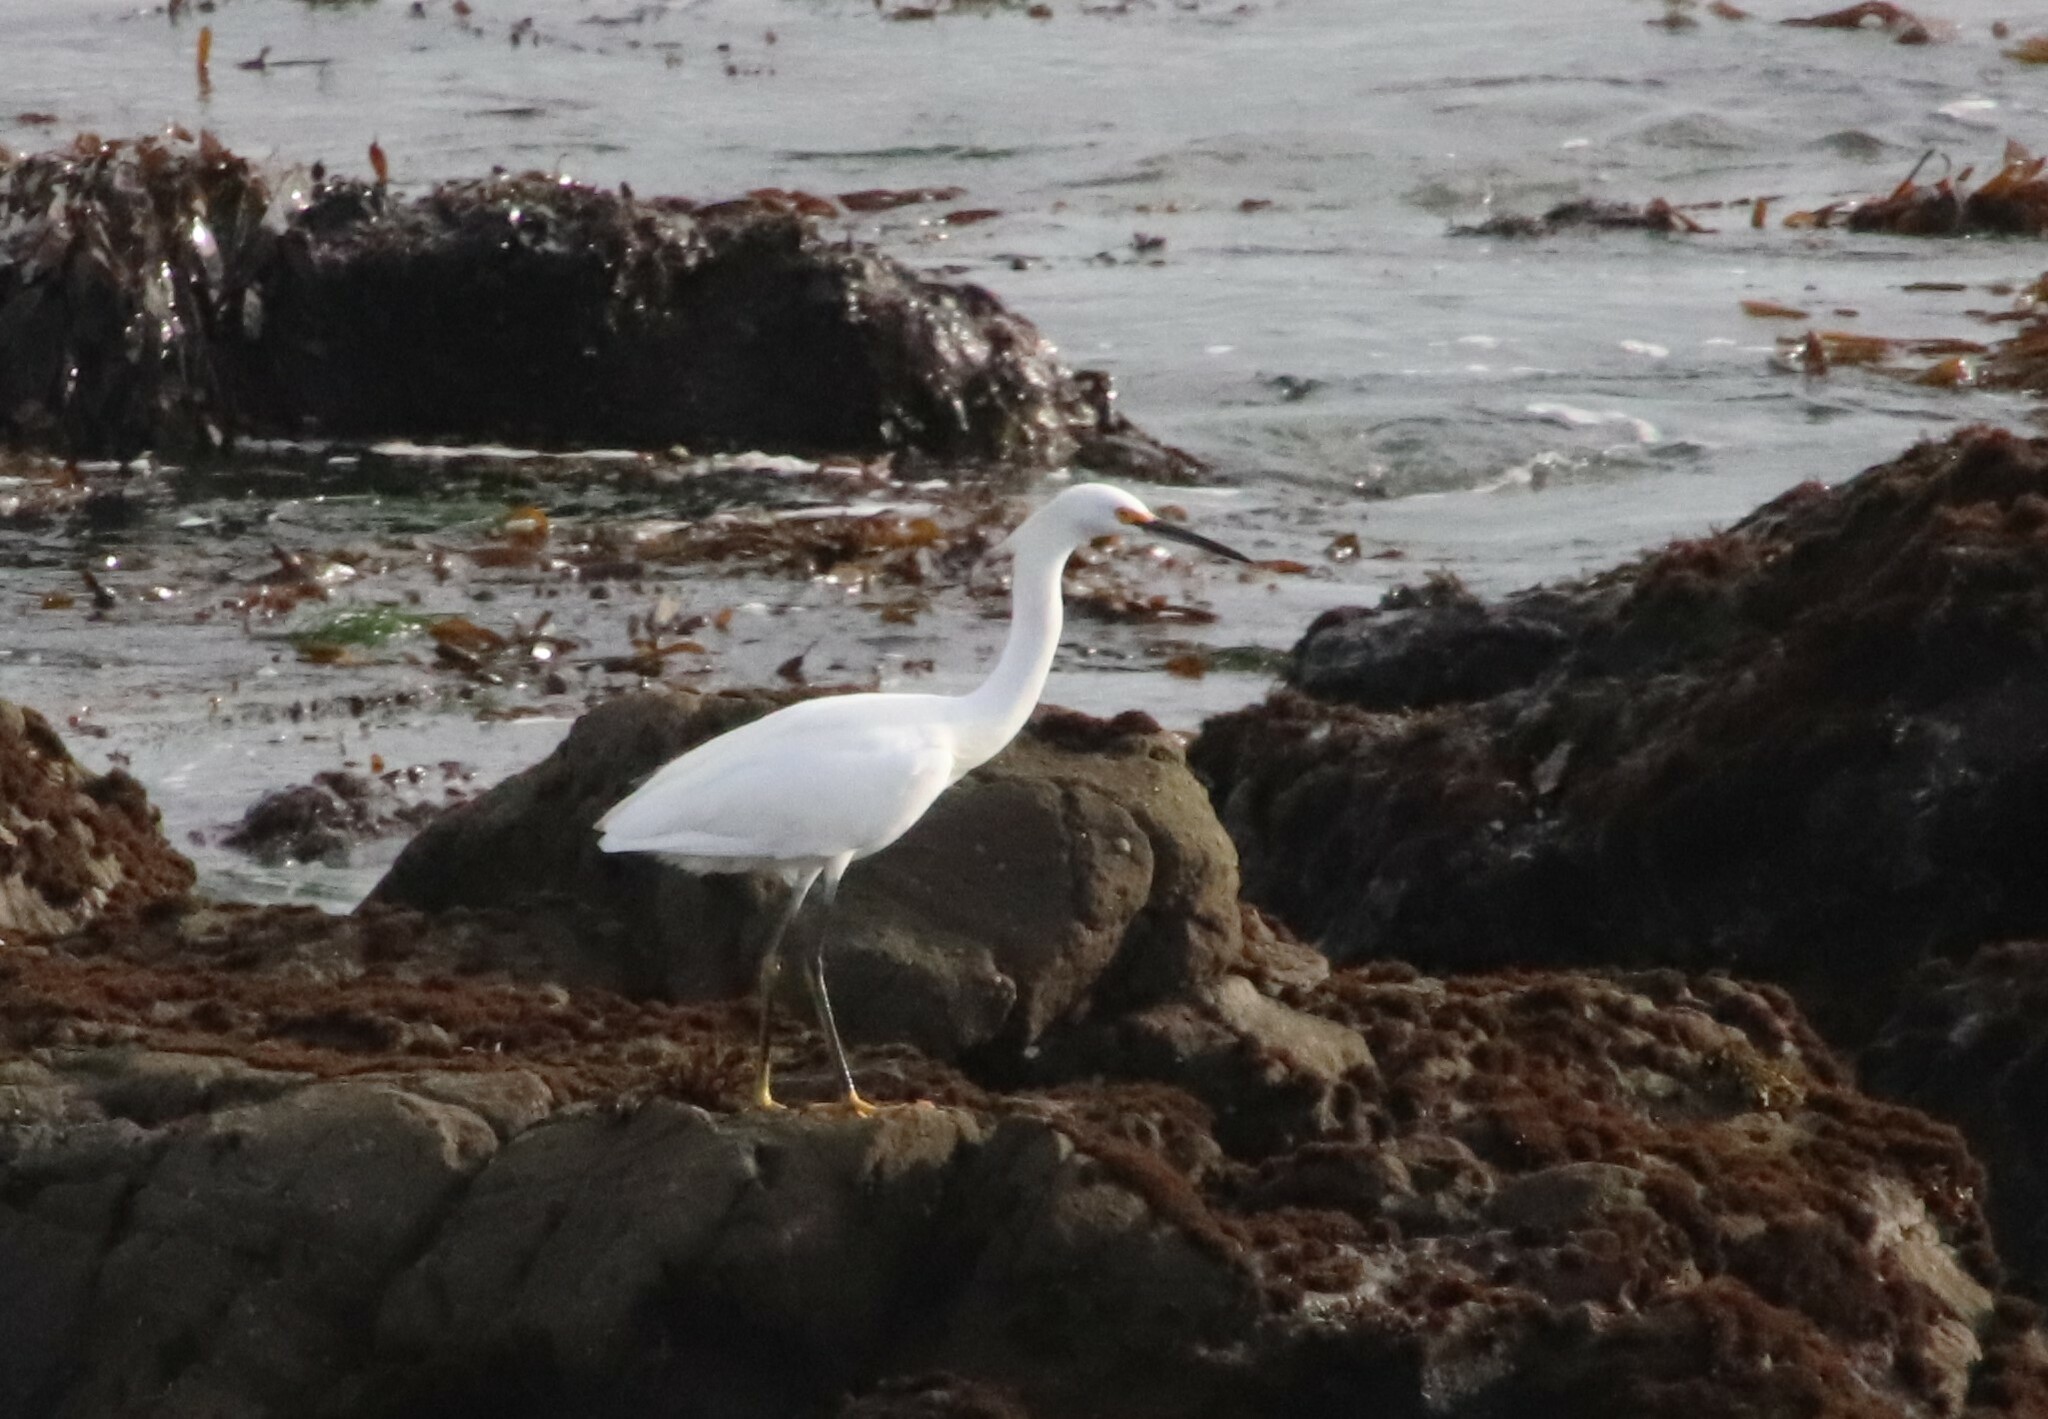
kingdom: Animalia
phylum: Chordata
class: Aves
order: Pelecaniformes
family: Ardeidae
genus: Egretta
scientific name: Egretta thula
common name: Snowy egret
